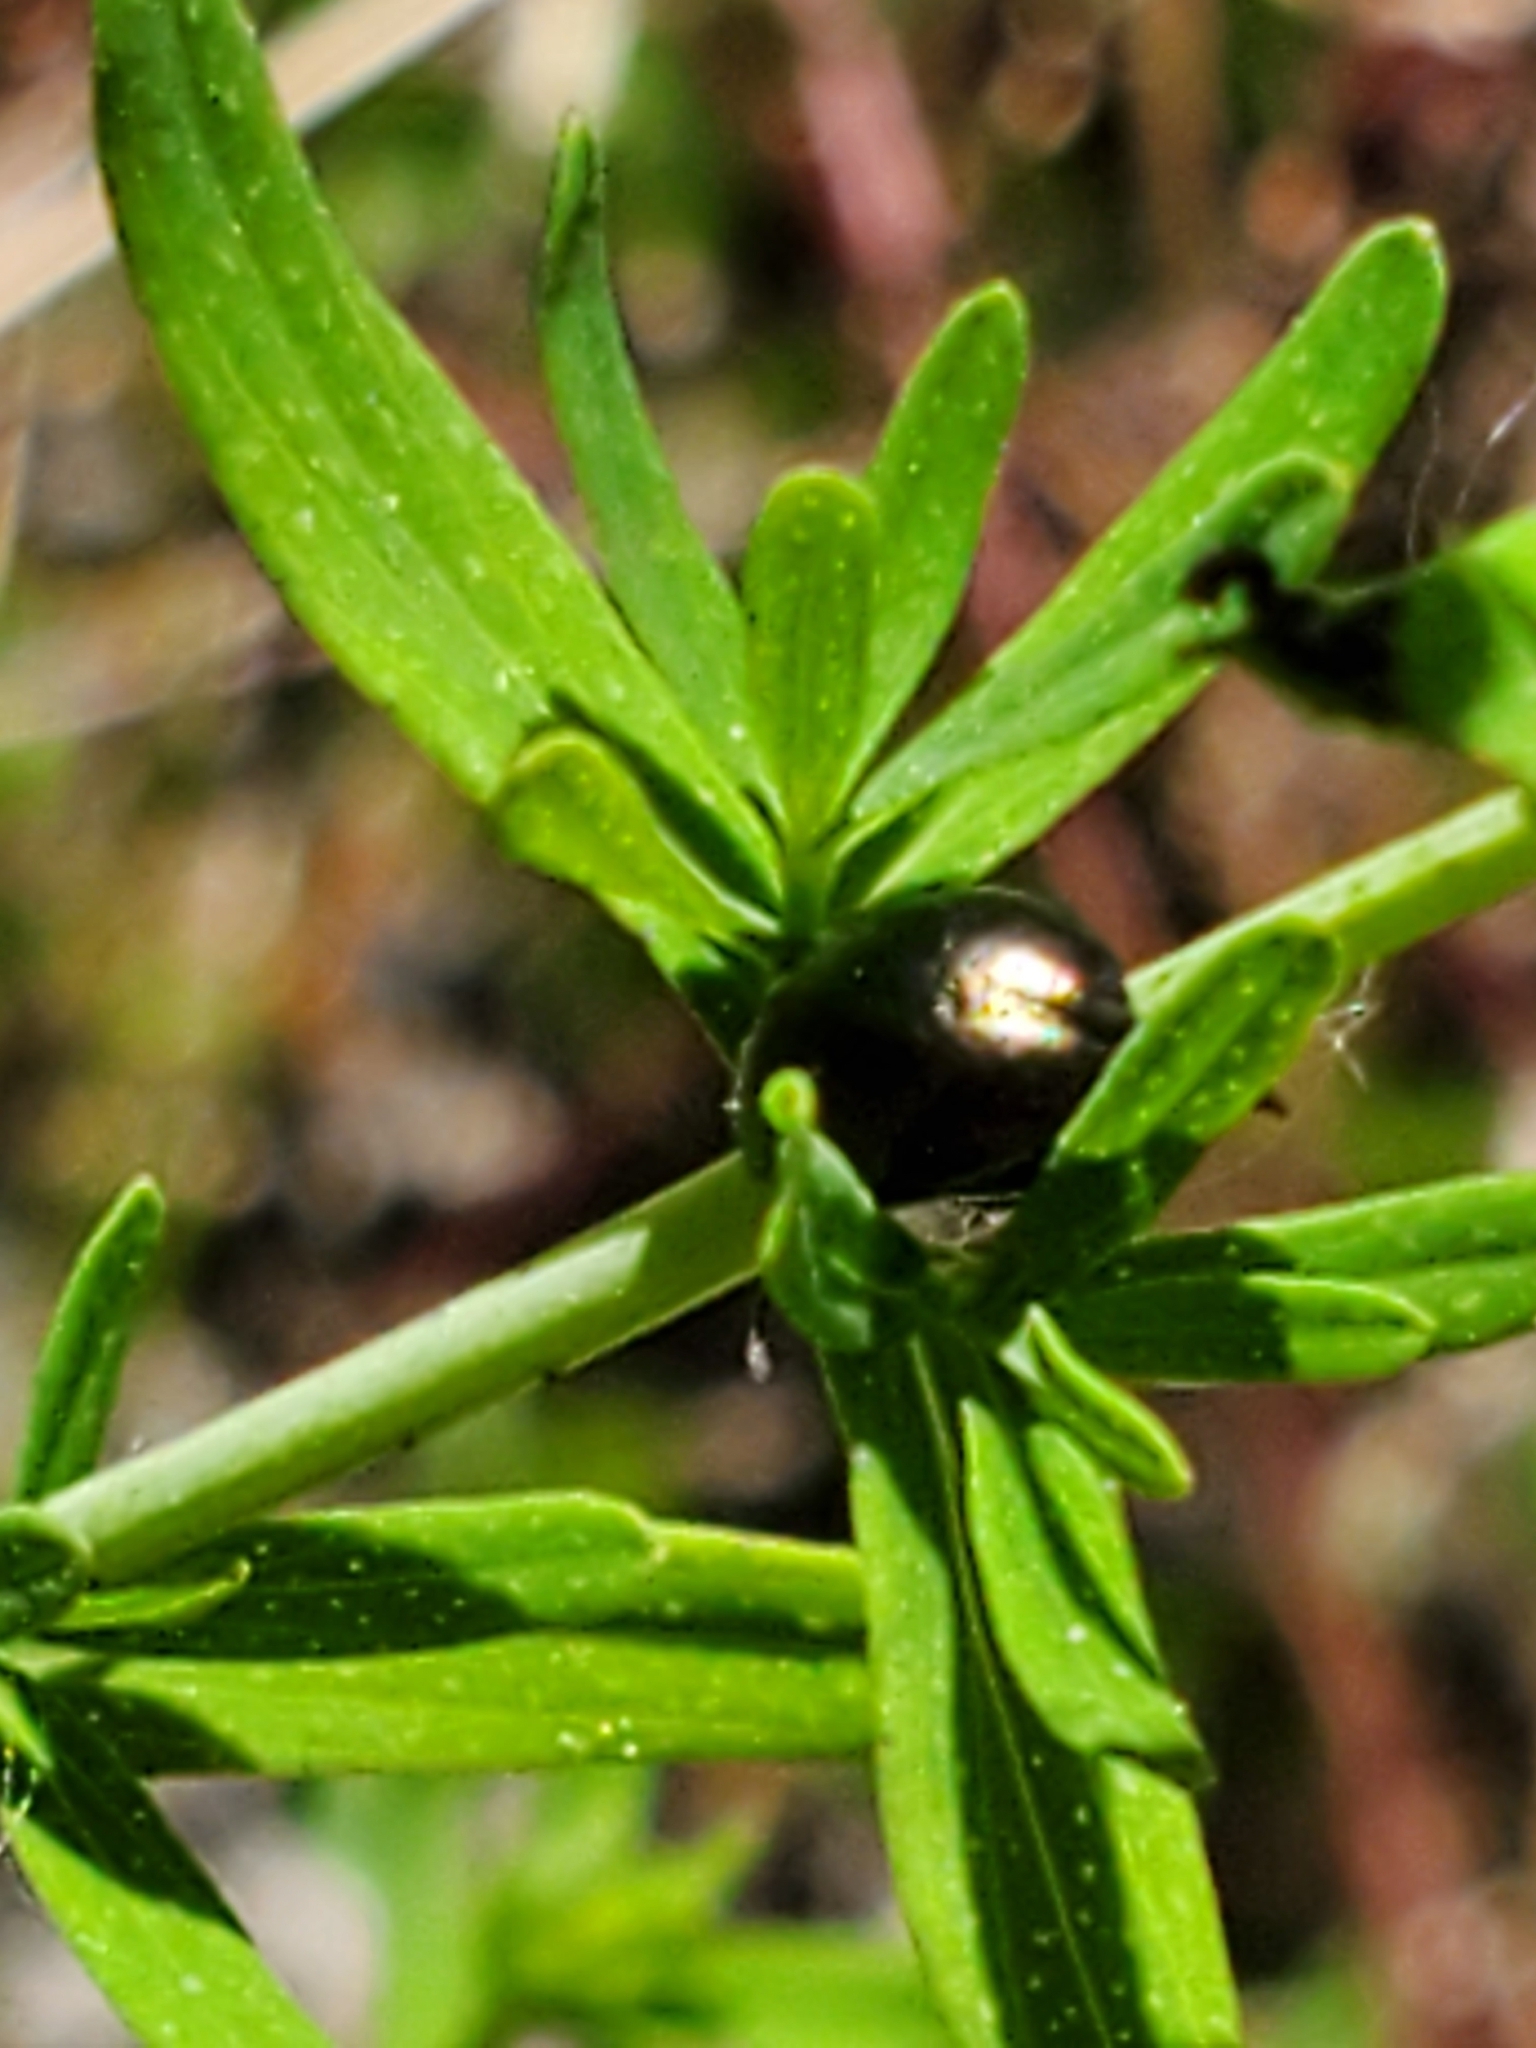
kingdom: Animalia
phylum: Arthropoda
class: Insecta
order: Coleoptera
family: Chrysomelidae
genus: Chrysolina
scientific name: Chrysolina hyperici
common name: St. johnswort beetle
